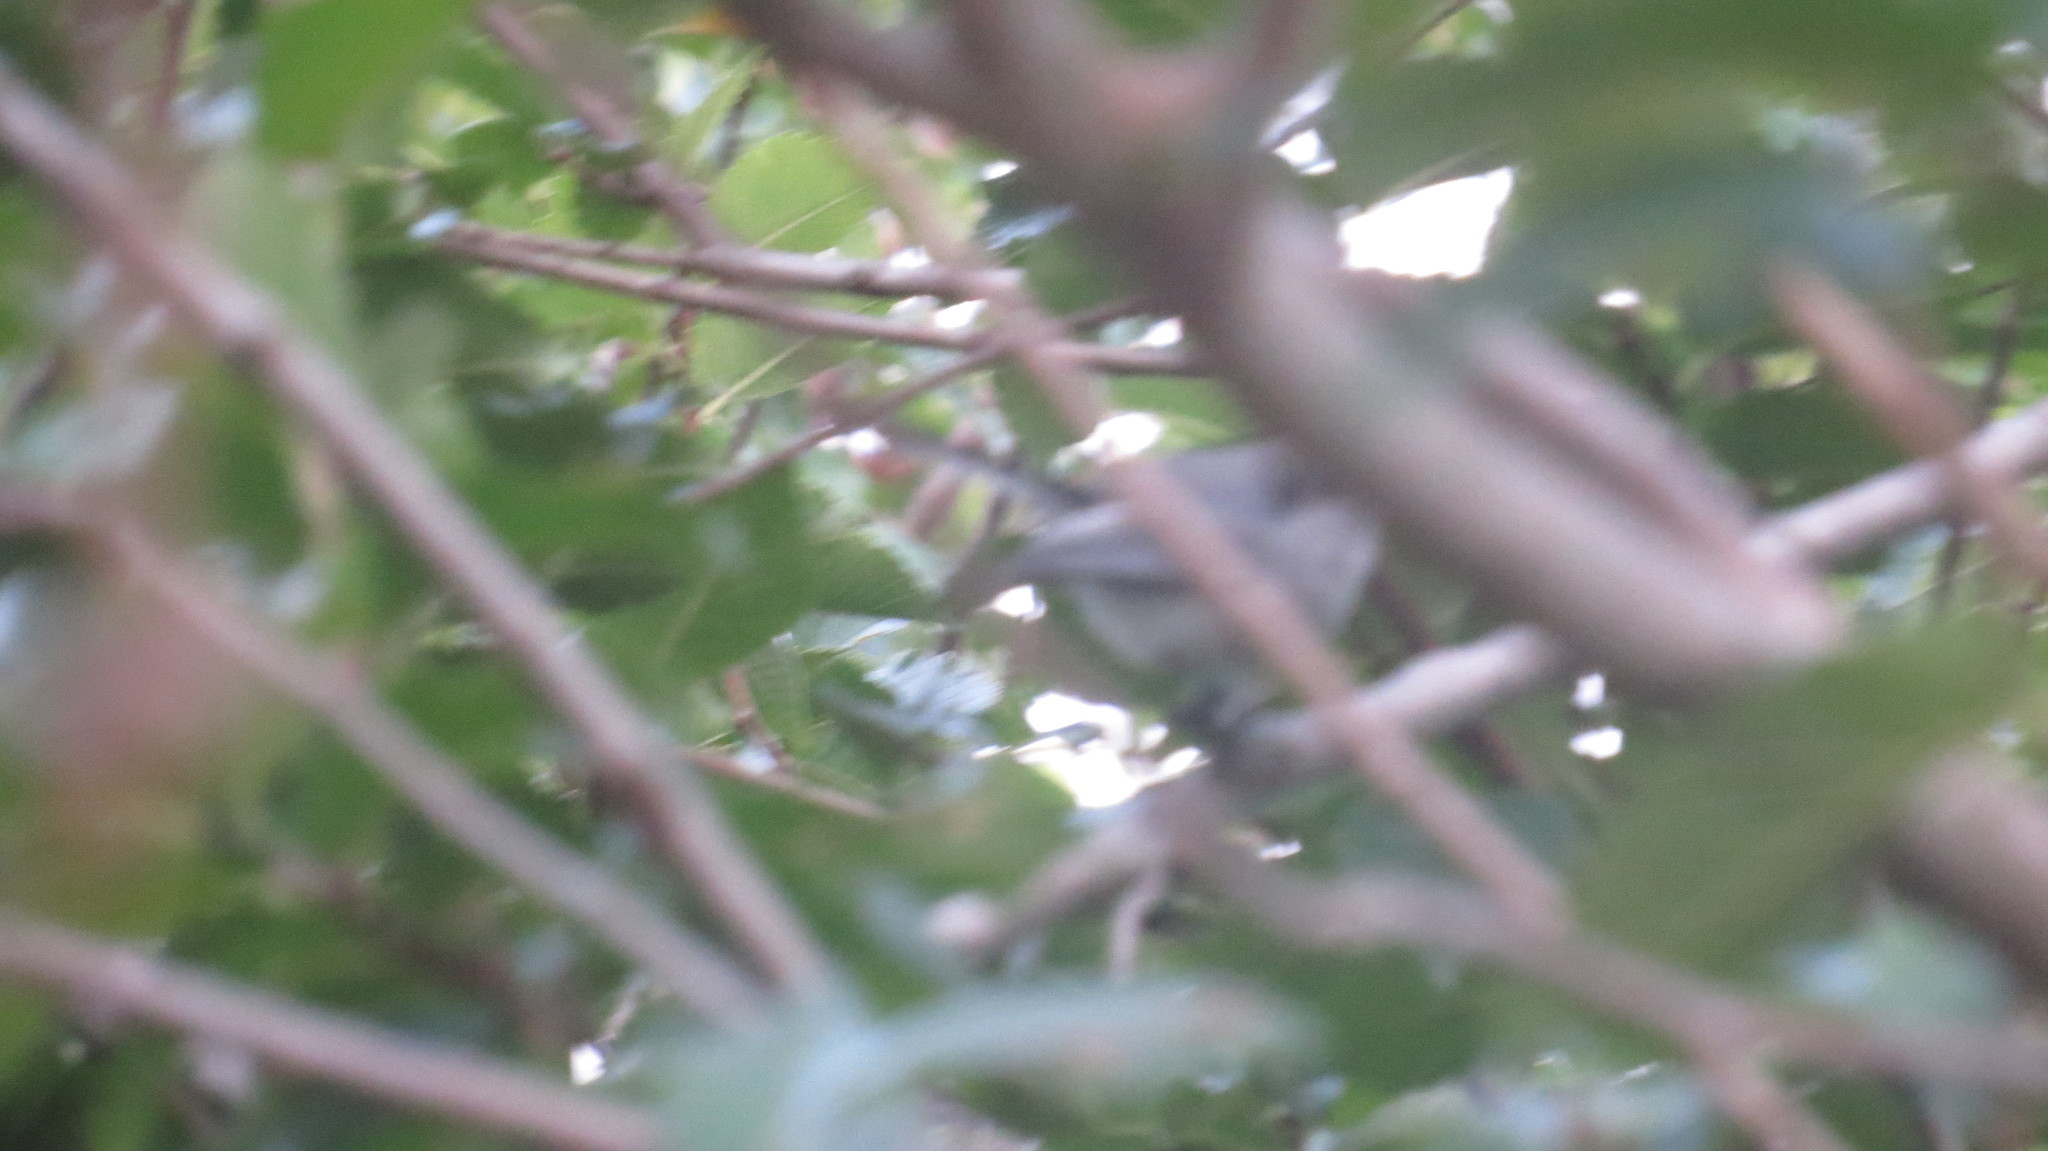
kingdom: Animalia
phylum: Chordata
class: Aves
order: Passeriformes
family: Polioptilidae
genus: Polioptila
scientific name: Polioptila dumicola
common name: Masked gnatcatcher
